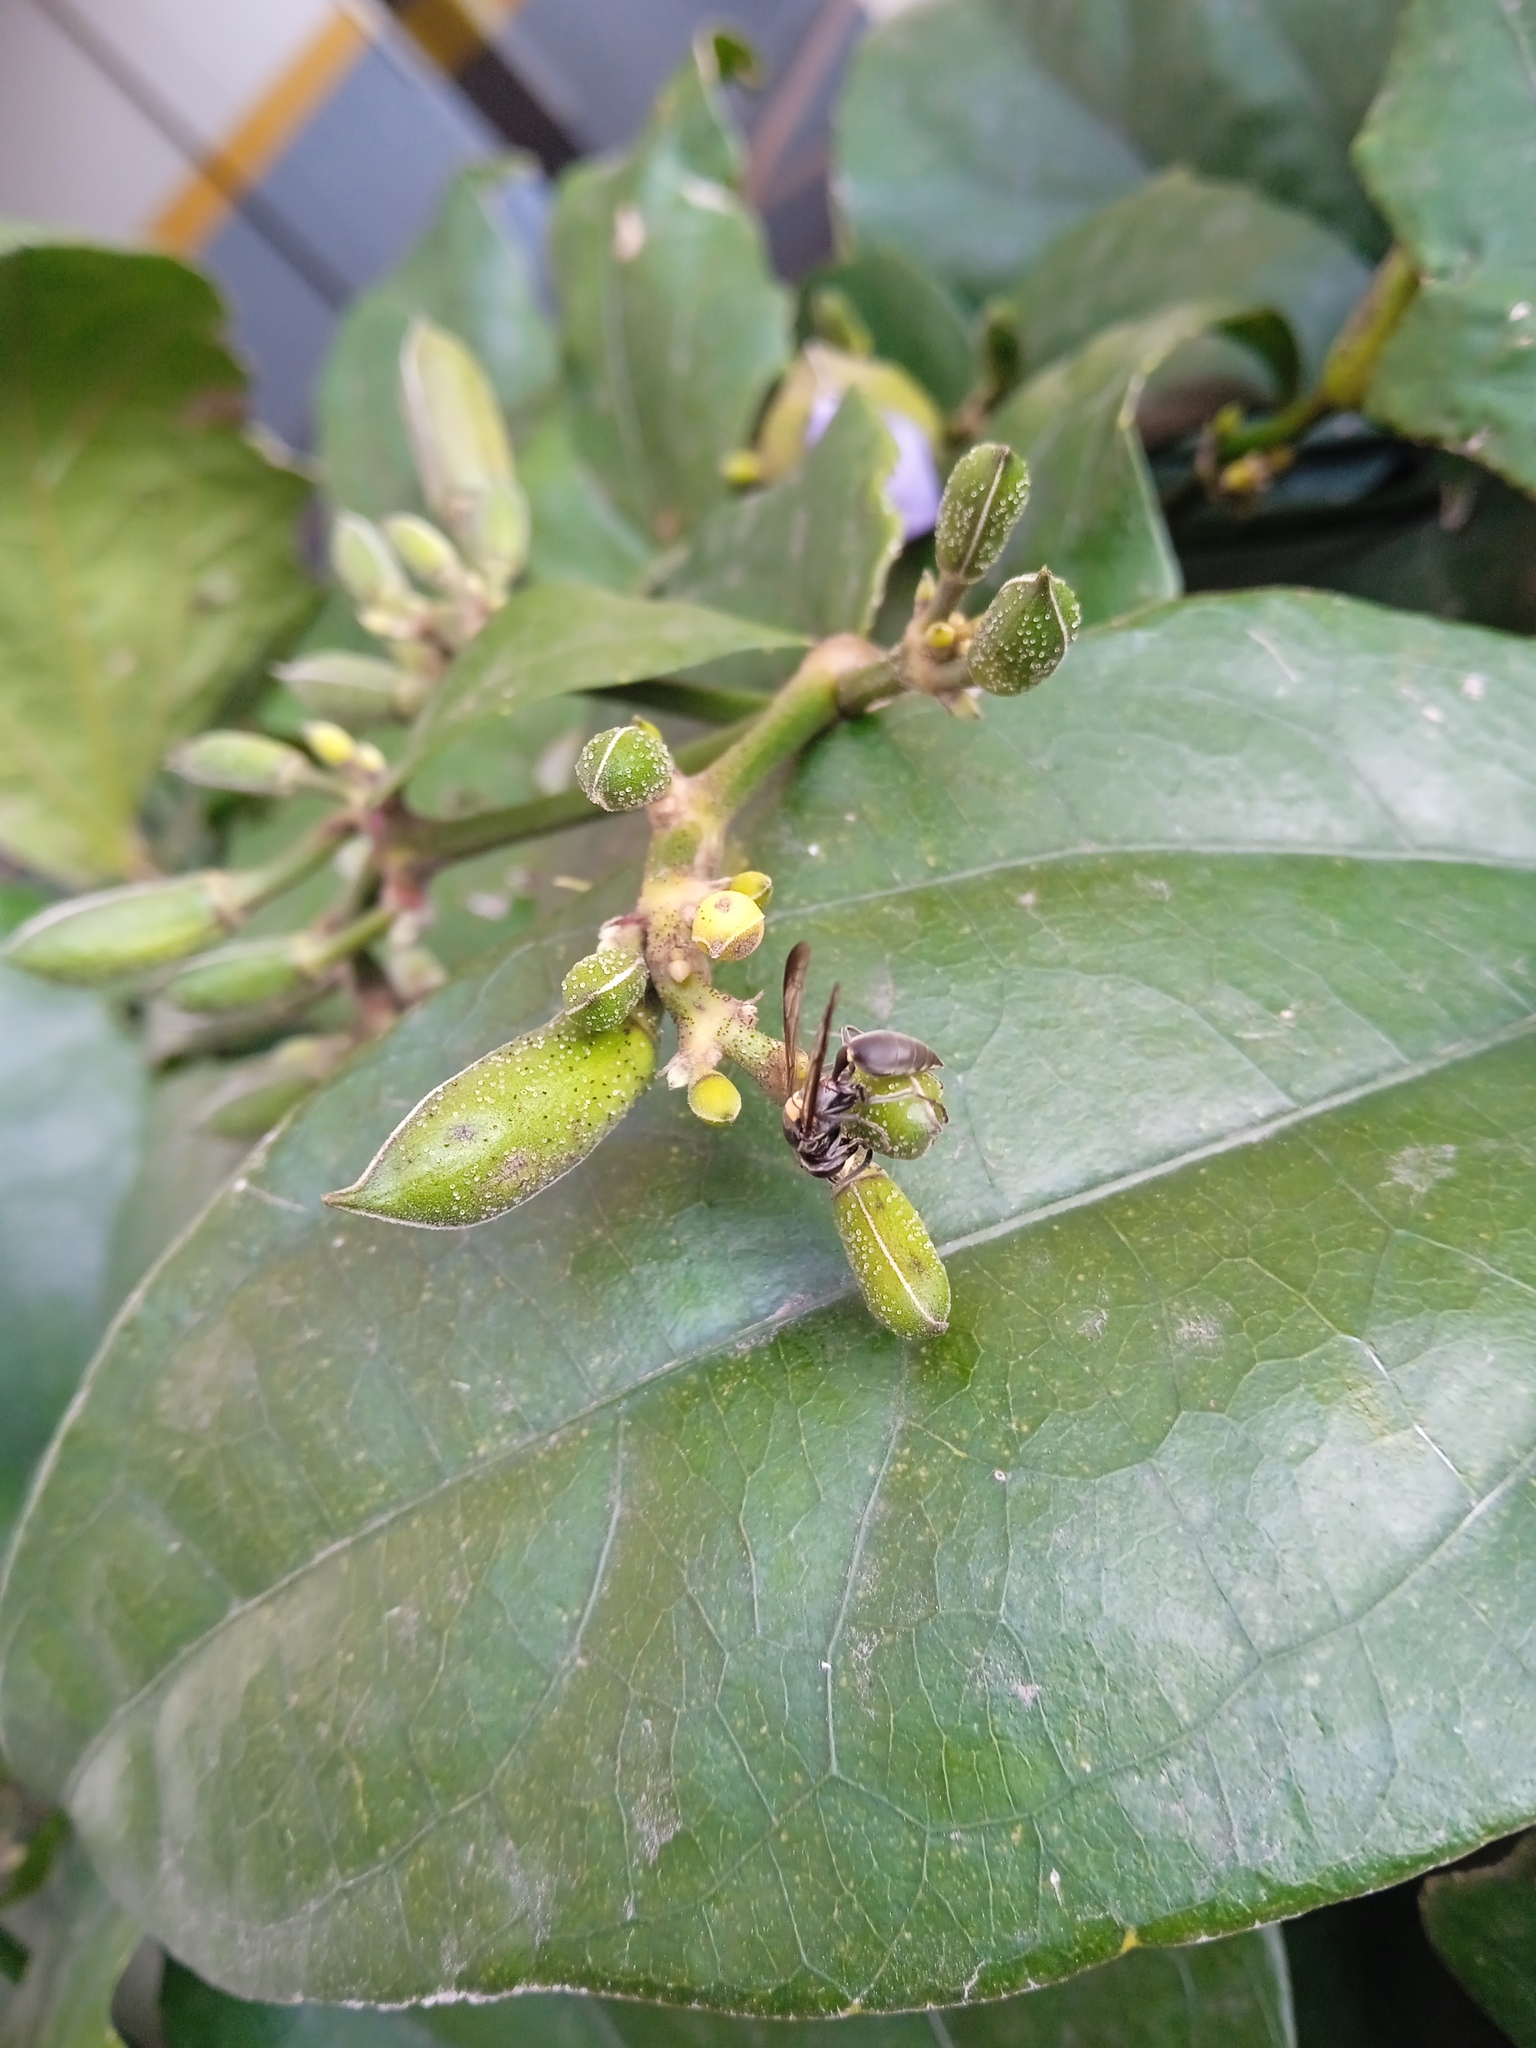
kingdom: Animalia
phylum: Arthropoda
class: Insecta
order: Hymenoptera
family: Eumenidae
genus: Polybia
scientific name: Polybia paulista
